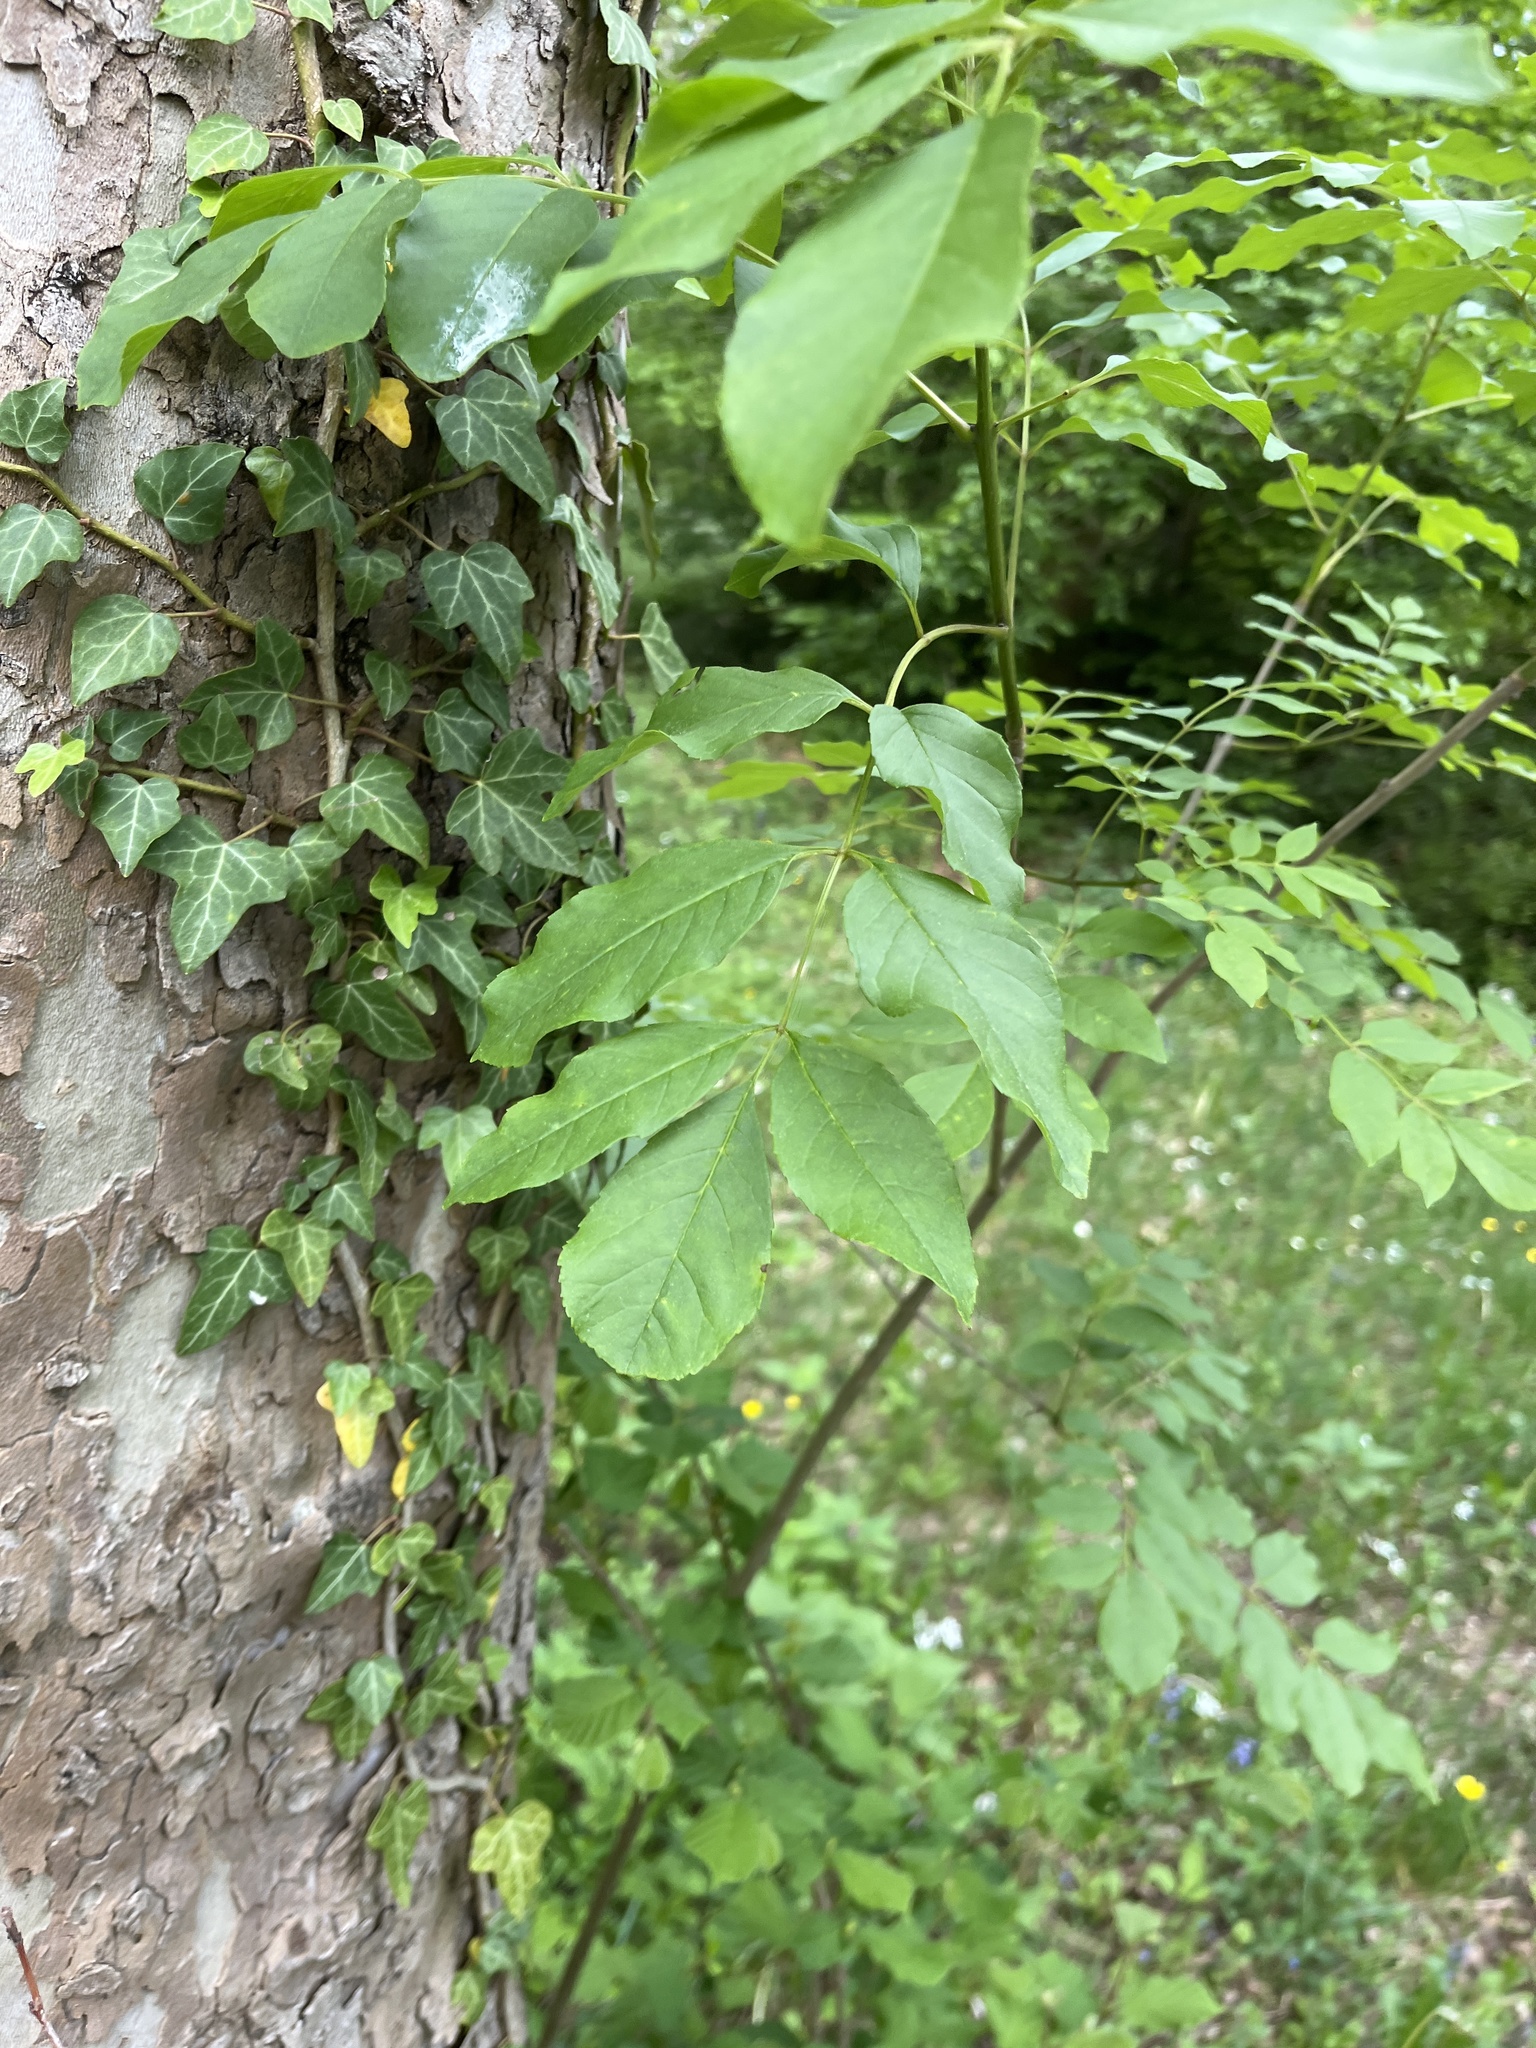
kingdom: Plantae
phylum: Tracheophyta
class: Magnoliopsida
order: Lamiales
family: Oleaceae
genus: Fraxinus
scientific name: Fraxinus ornus
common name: Manna ash
